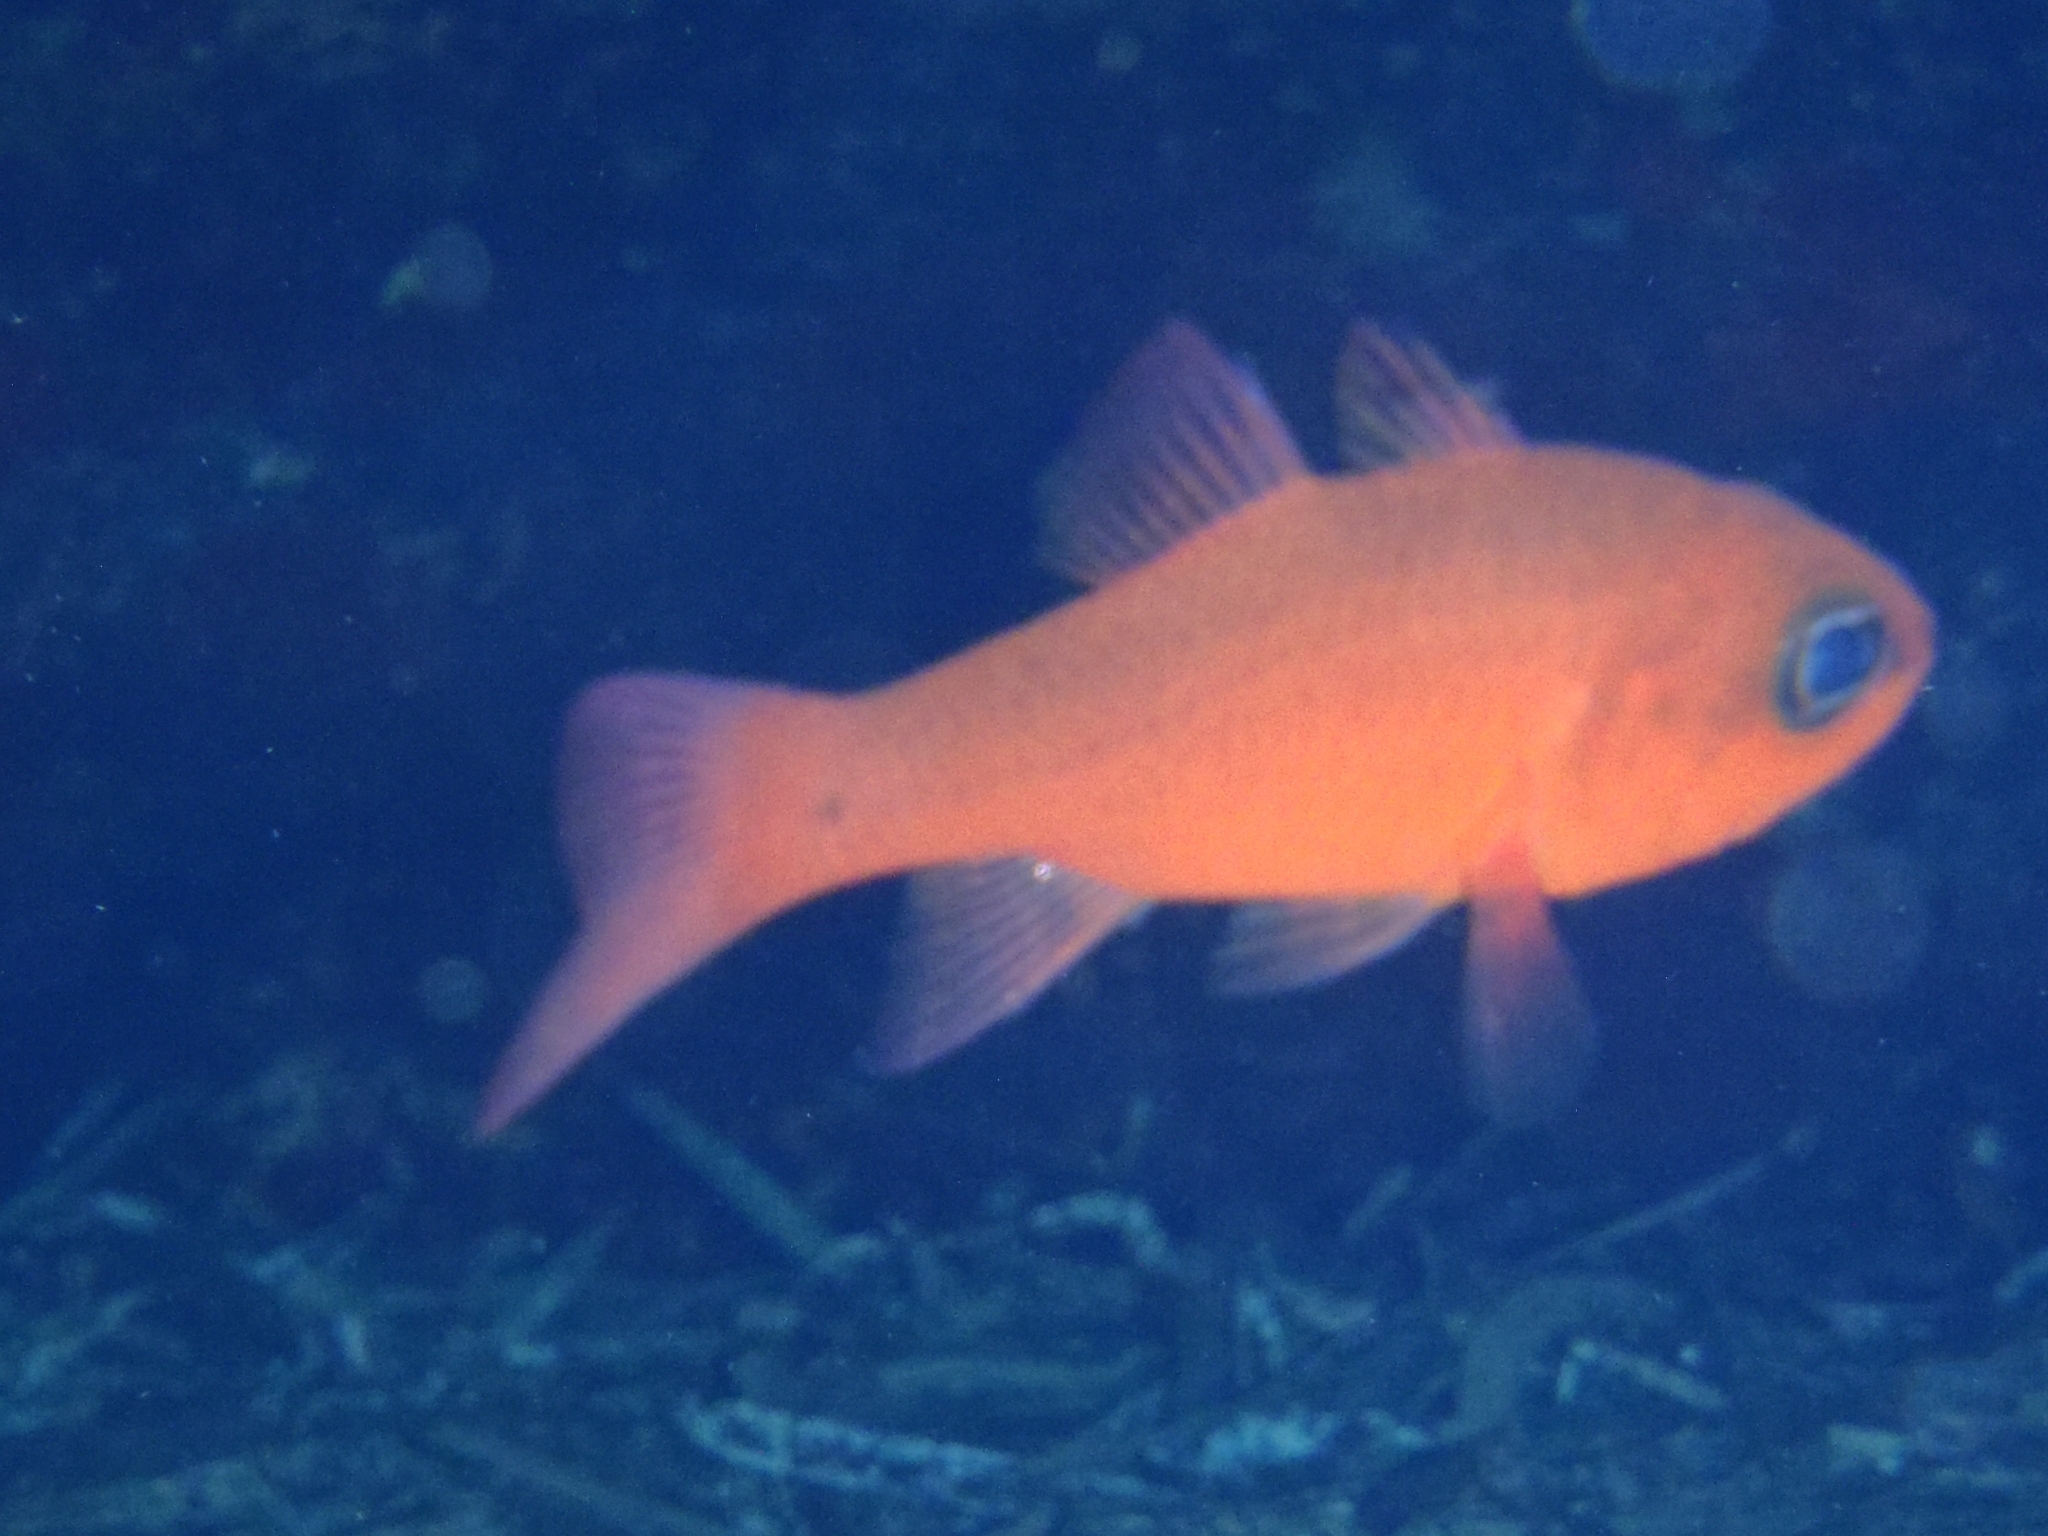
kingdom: Animalia
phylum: Chordata
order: Perciformes
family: Apogonidae
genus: Apogon
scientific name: Apogon imberbis
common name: Cardinal fish
